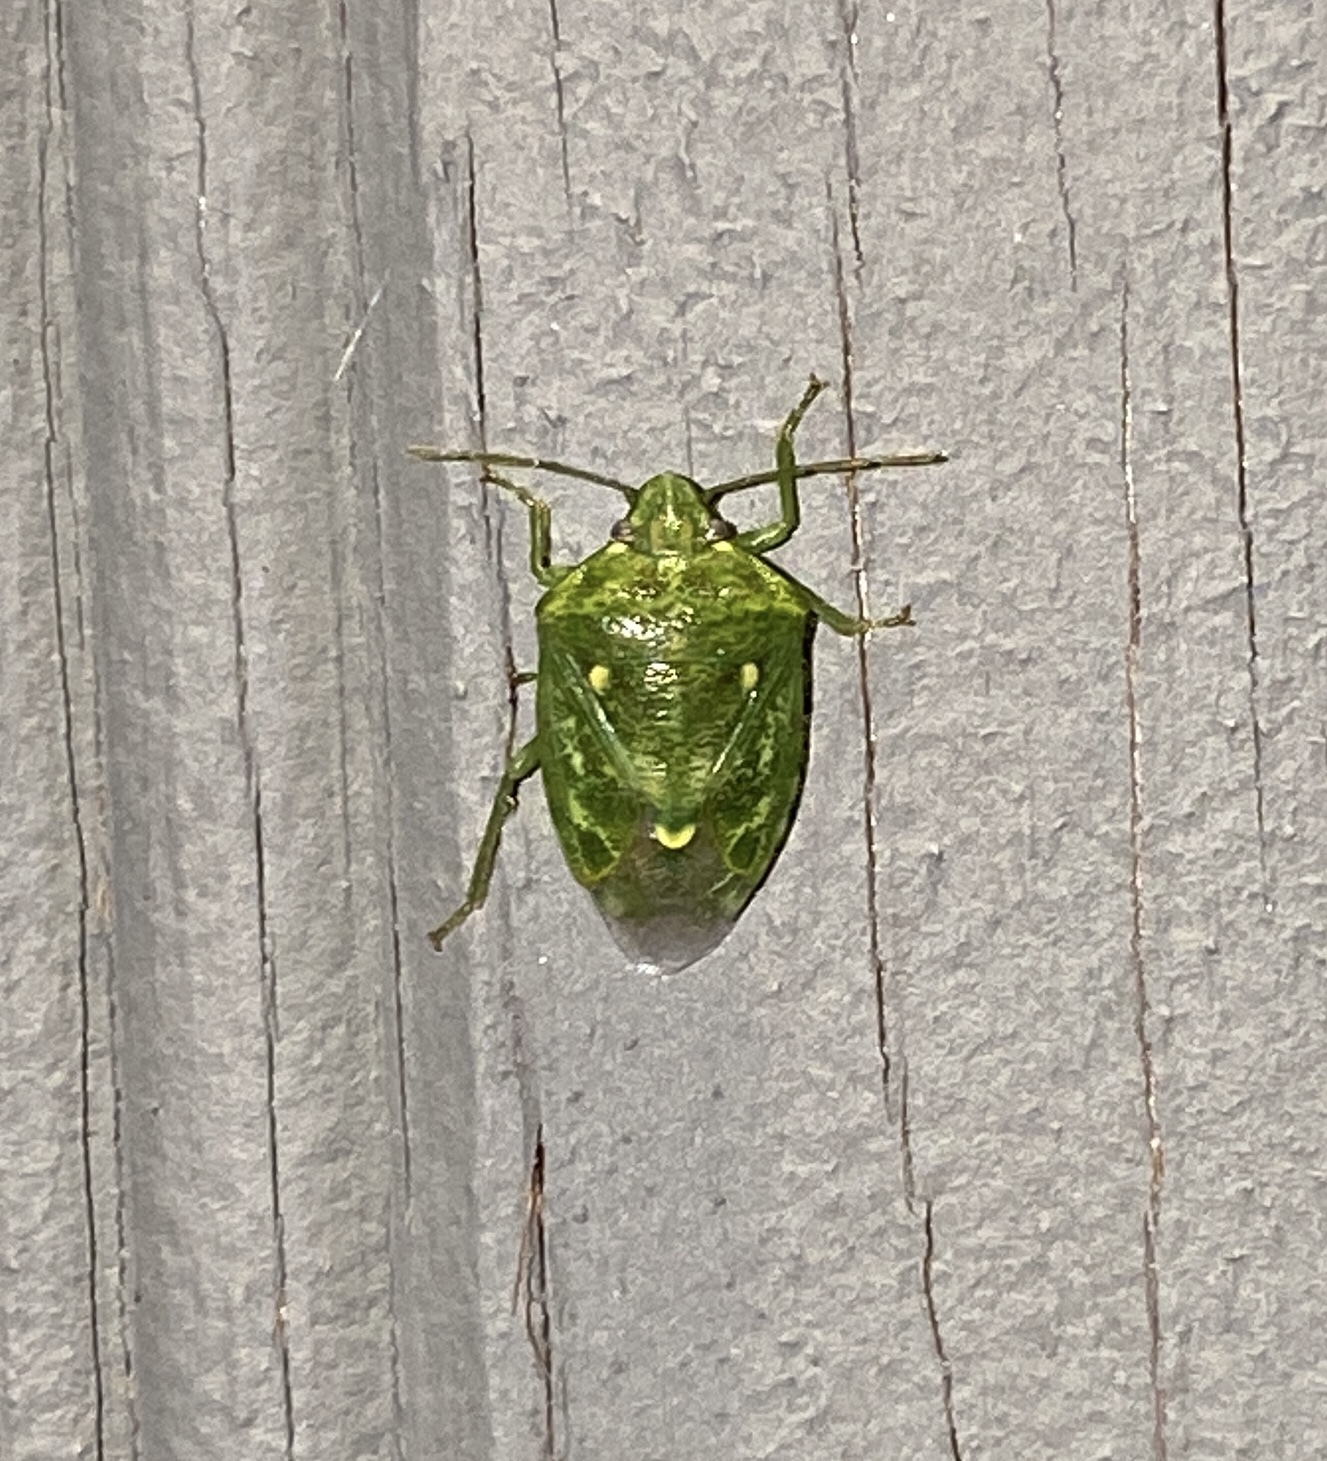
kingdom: Animalia
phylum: Arthropoda
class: Insecta
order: Hemiptera
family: Pentatomidae
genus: Banasa
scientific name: Banasa euchlora
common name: Cedar berry bug
